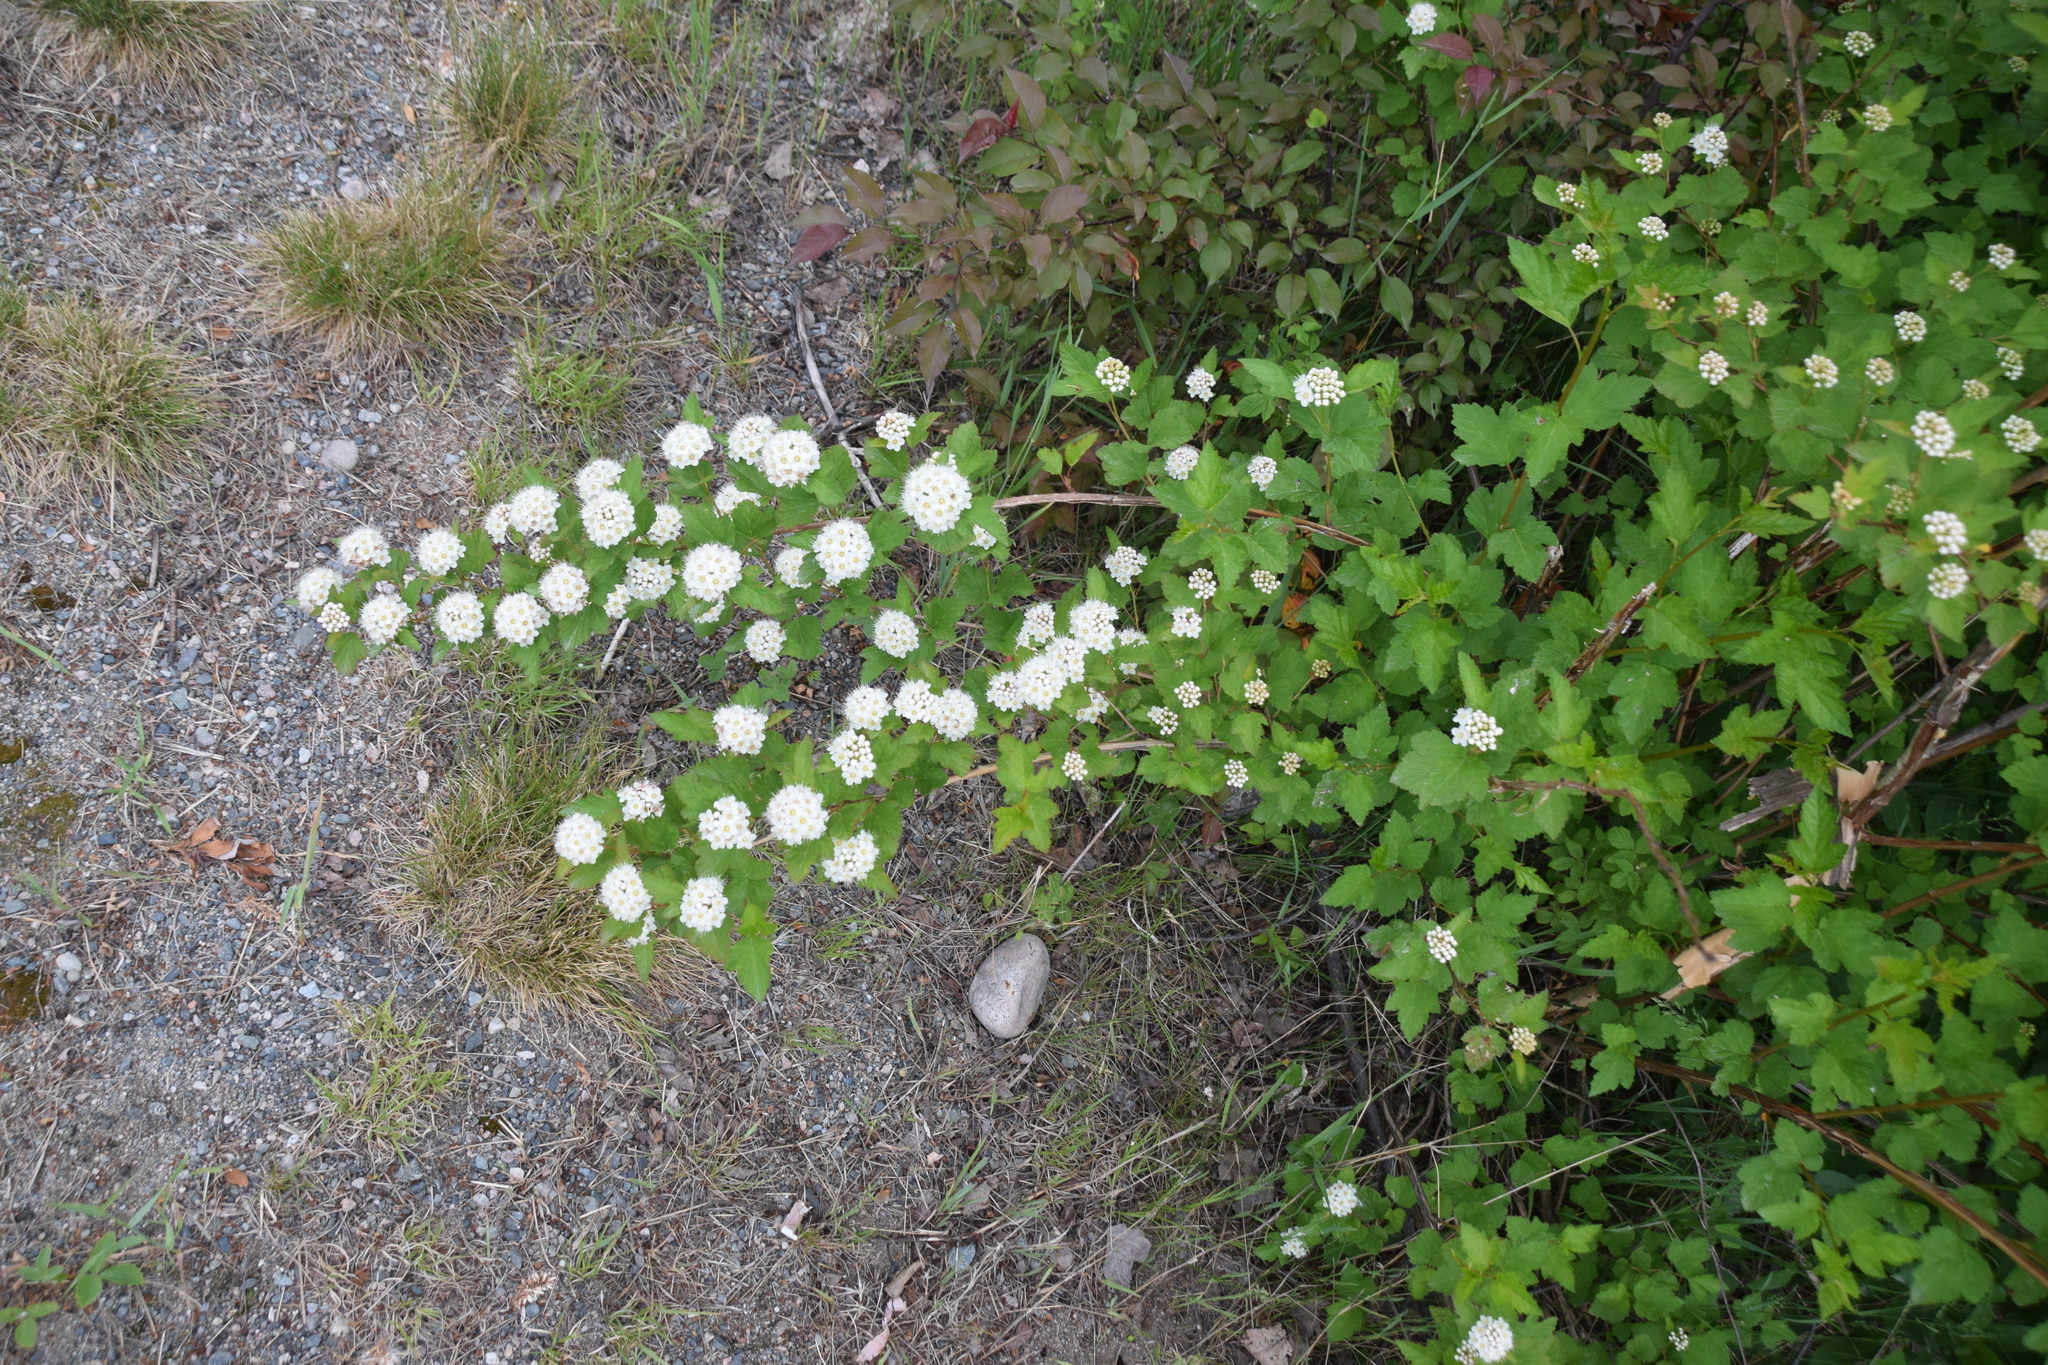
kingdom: Plantae
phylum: Tracheophyta
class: Magnoliopsida
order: Rosales
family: Rosaceae
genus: Physocarpus
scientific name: Physocarpus opulifolius
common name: Ninebark
